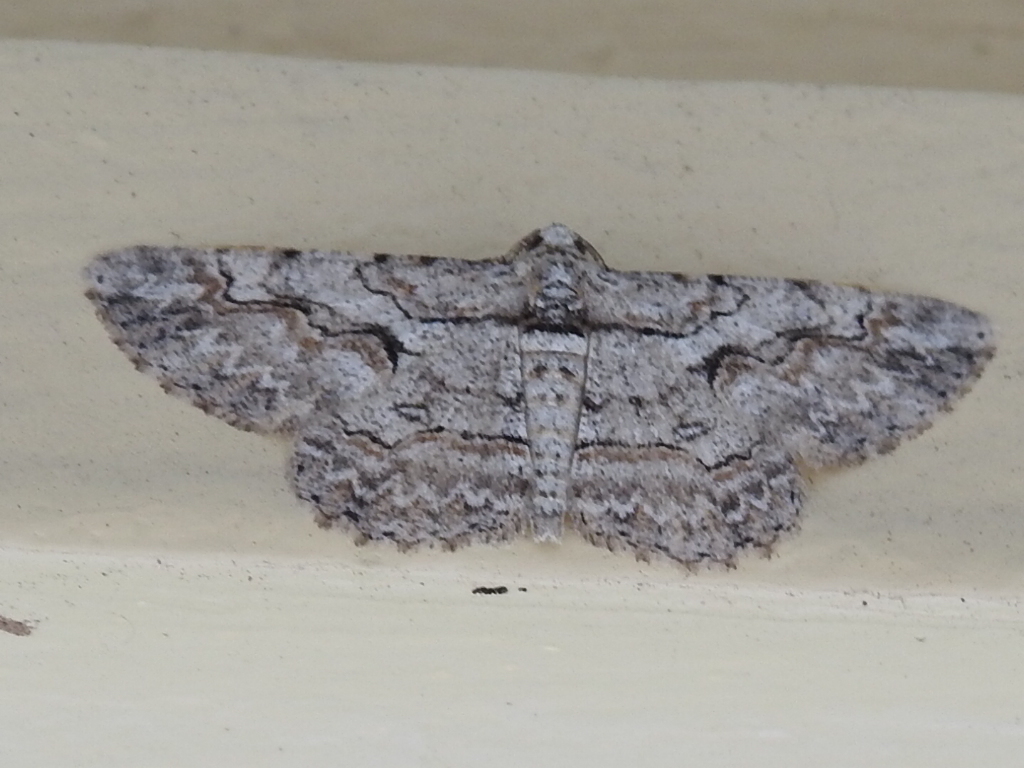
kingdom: Animalia
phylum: Arthropoda
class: Insecta
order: Lepidoptera
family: Geometridae
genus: Iridopsis
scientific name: Iridopsis defectaria
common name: Brown-shaded gray
